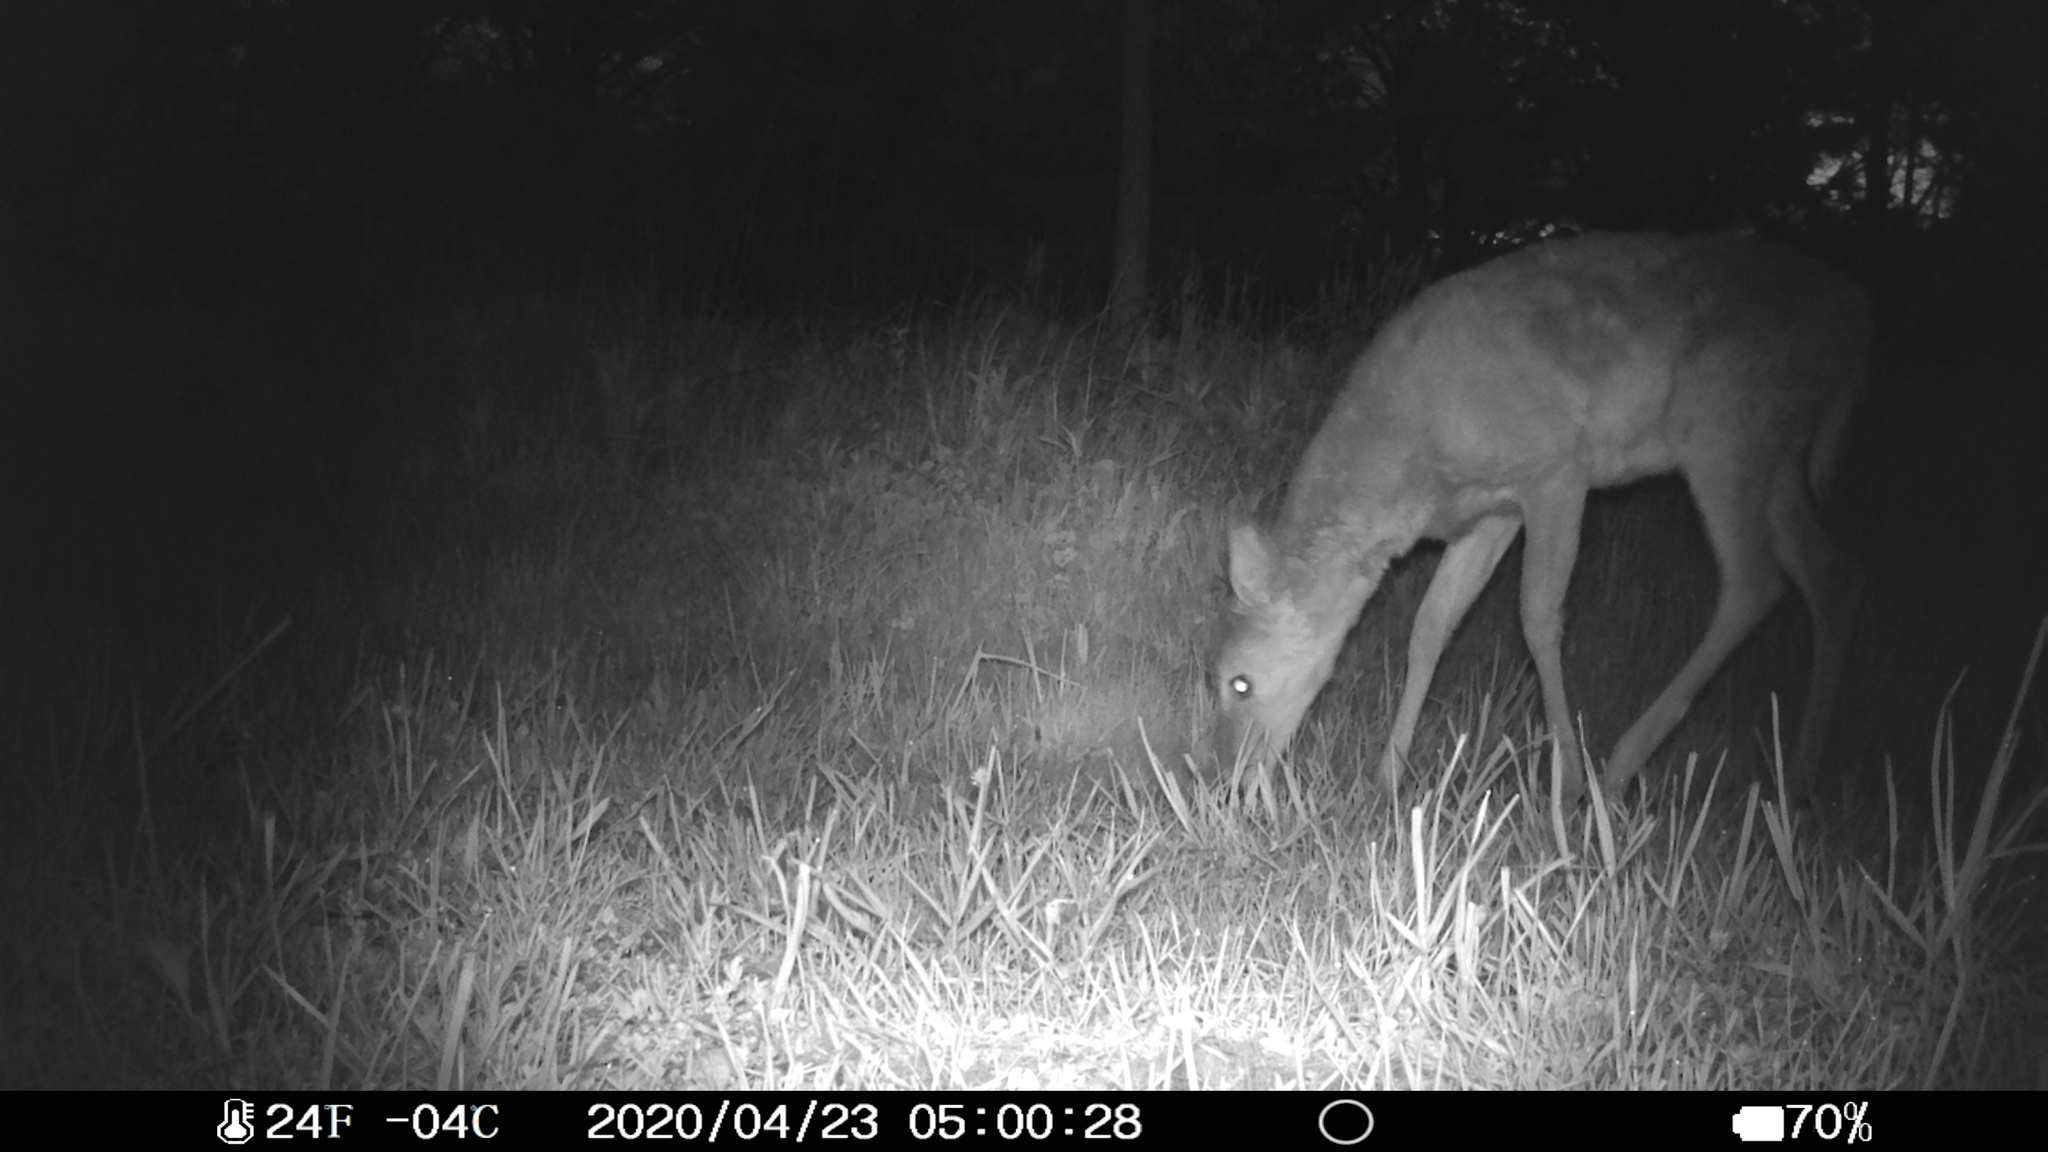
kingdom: Animalia
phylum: Chordata
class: Mammalia
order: Artiodactyla
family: Cervidae
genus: Odocoileus
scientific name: Odocoileus virginianus
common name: White-tailed deer
